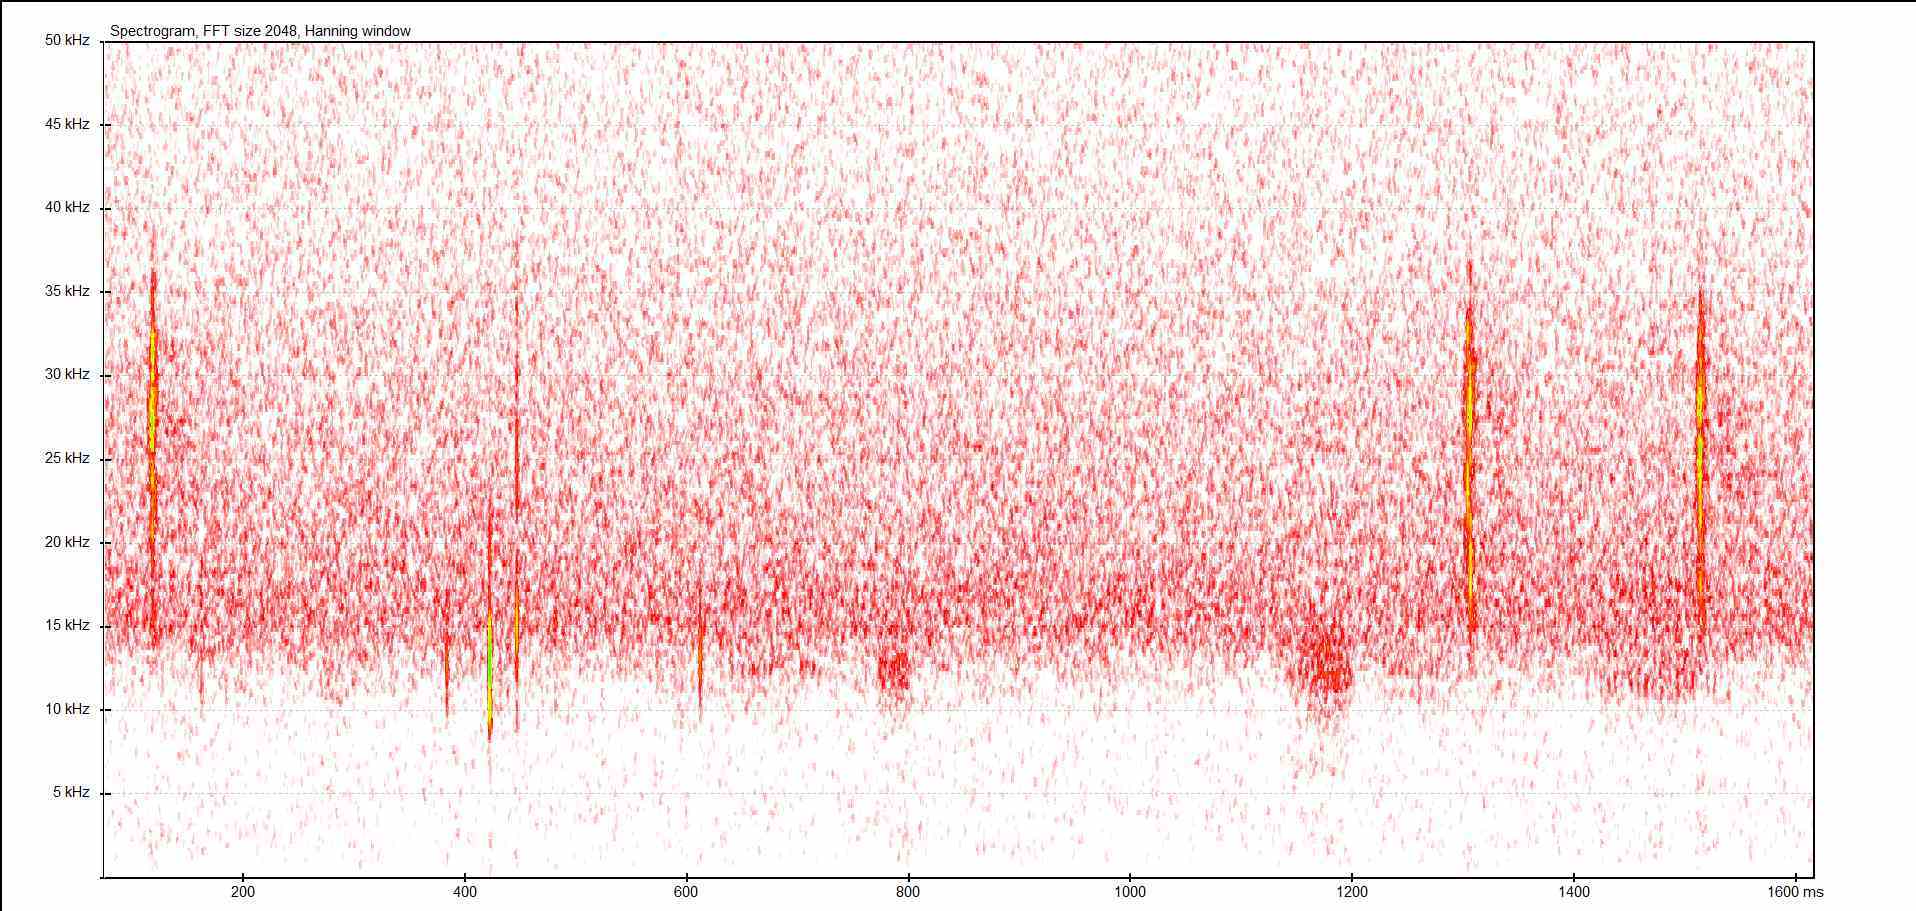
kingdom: Animalia
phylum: Arthropoda
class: Insecta
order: Orthoptera
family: Tettigoniidae
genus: Barbitistes
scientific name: Barbitistes serricauda
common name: Saw-tailed bush-cricket
